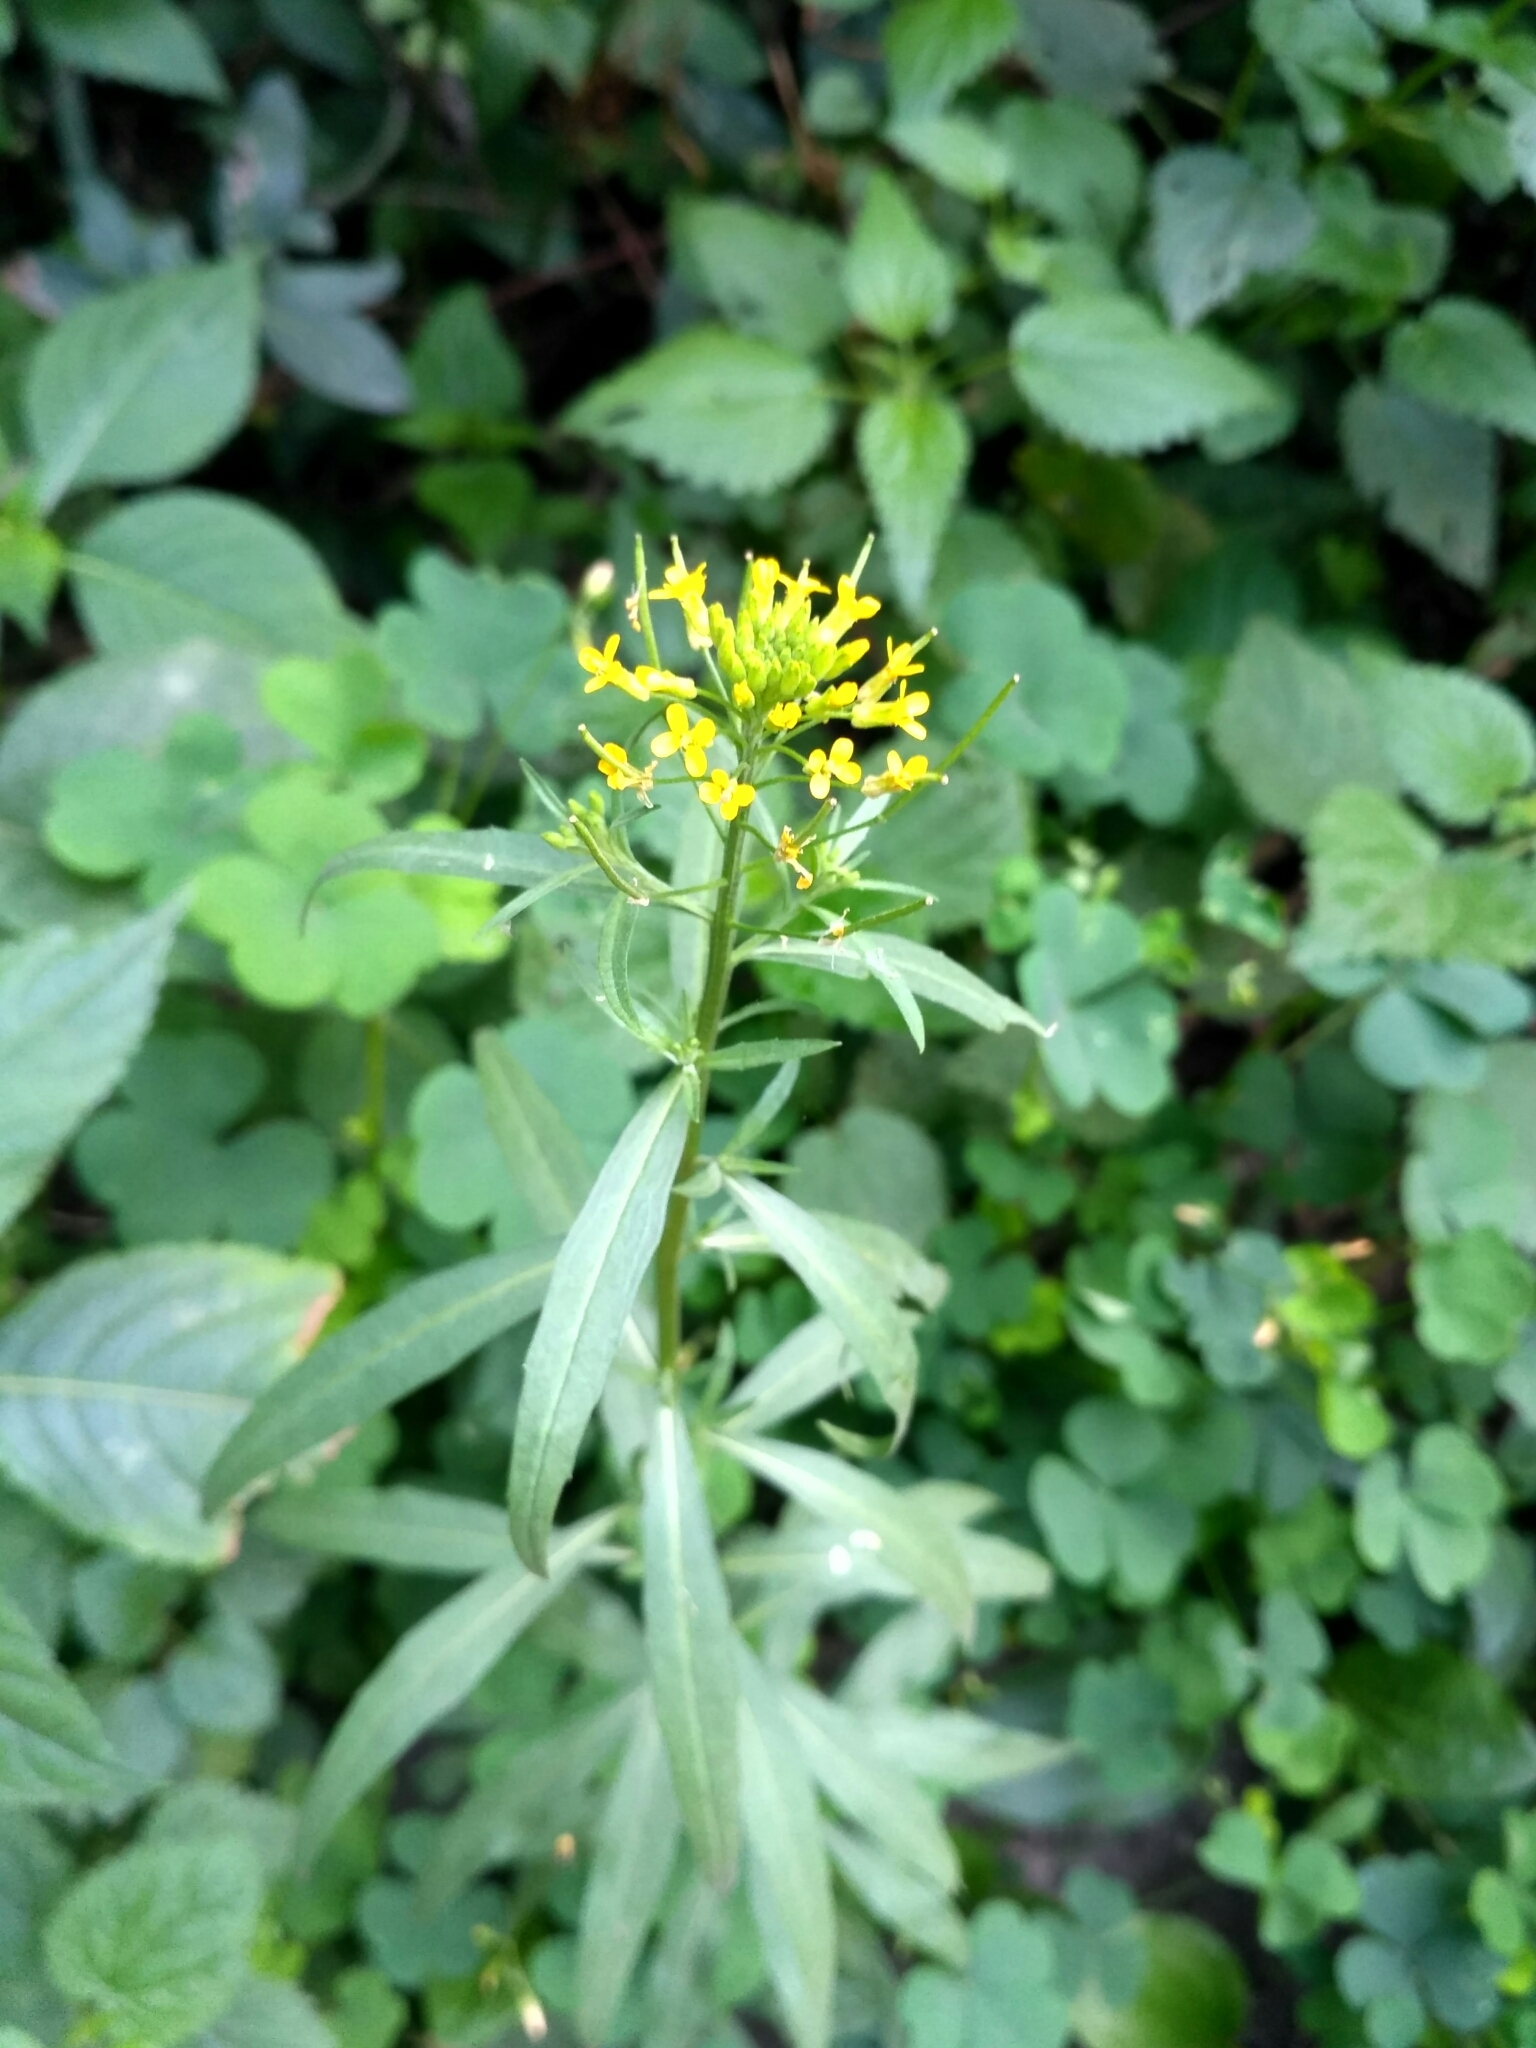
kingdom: Plantae
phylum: Tracheophyta
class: Magnoliopsida
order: Brassicales
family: Brassicaceae
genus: Erysimum
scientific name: Erysimum cheiranthoides
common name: Treacle mustard
